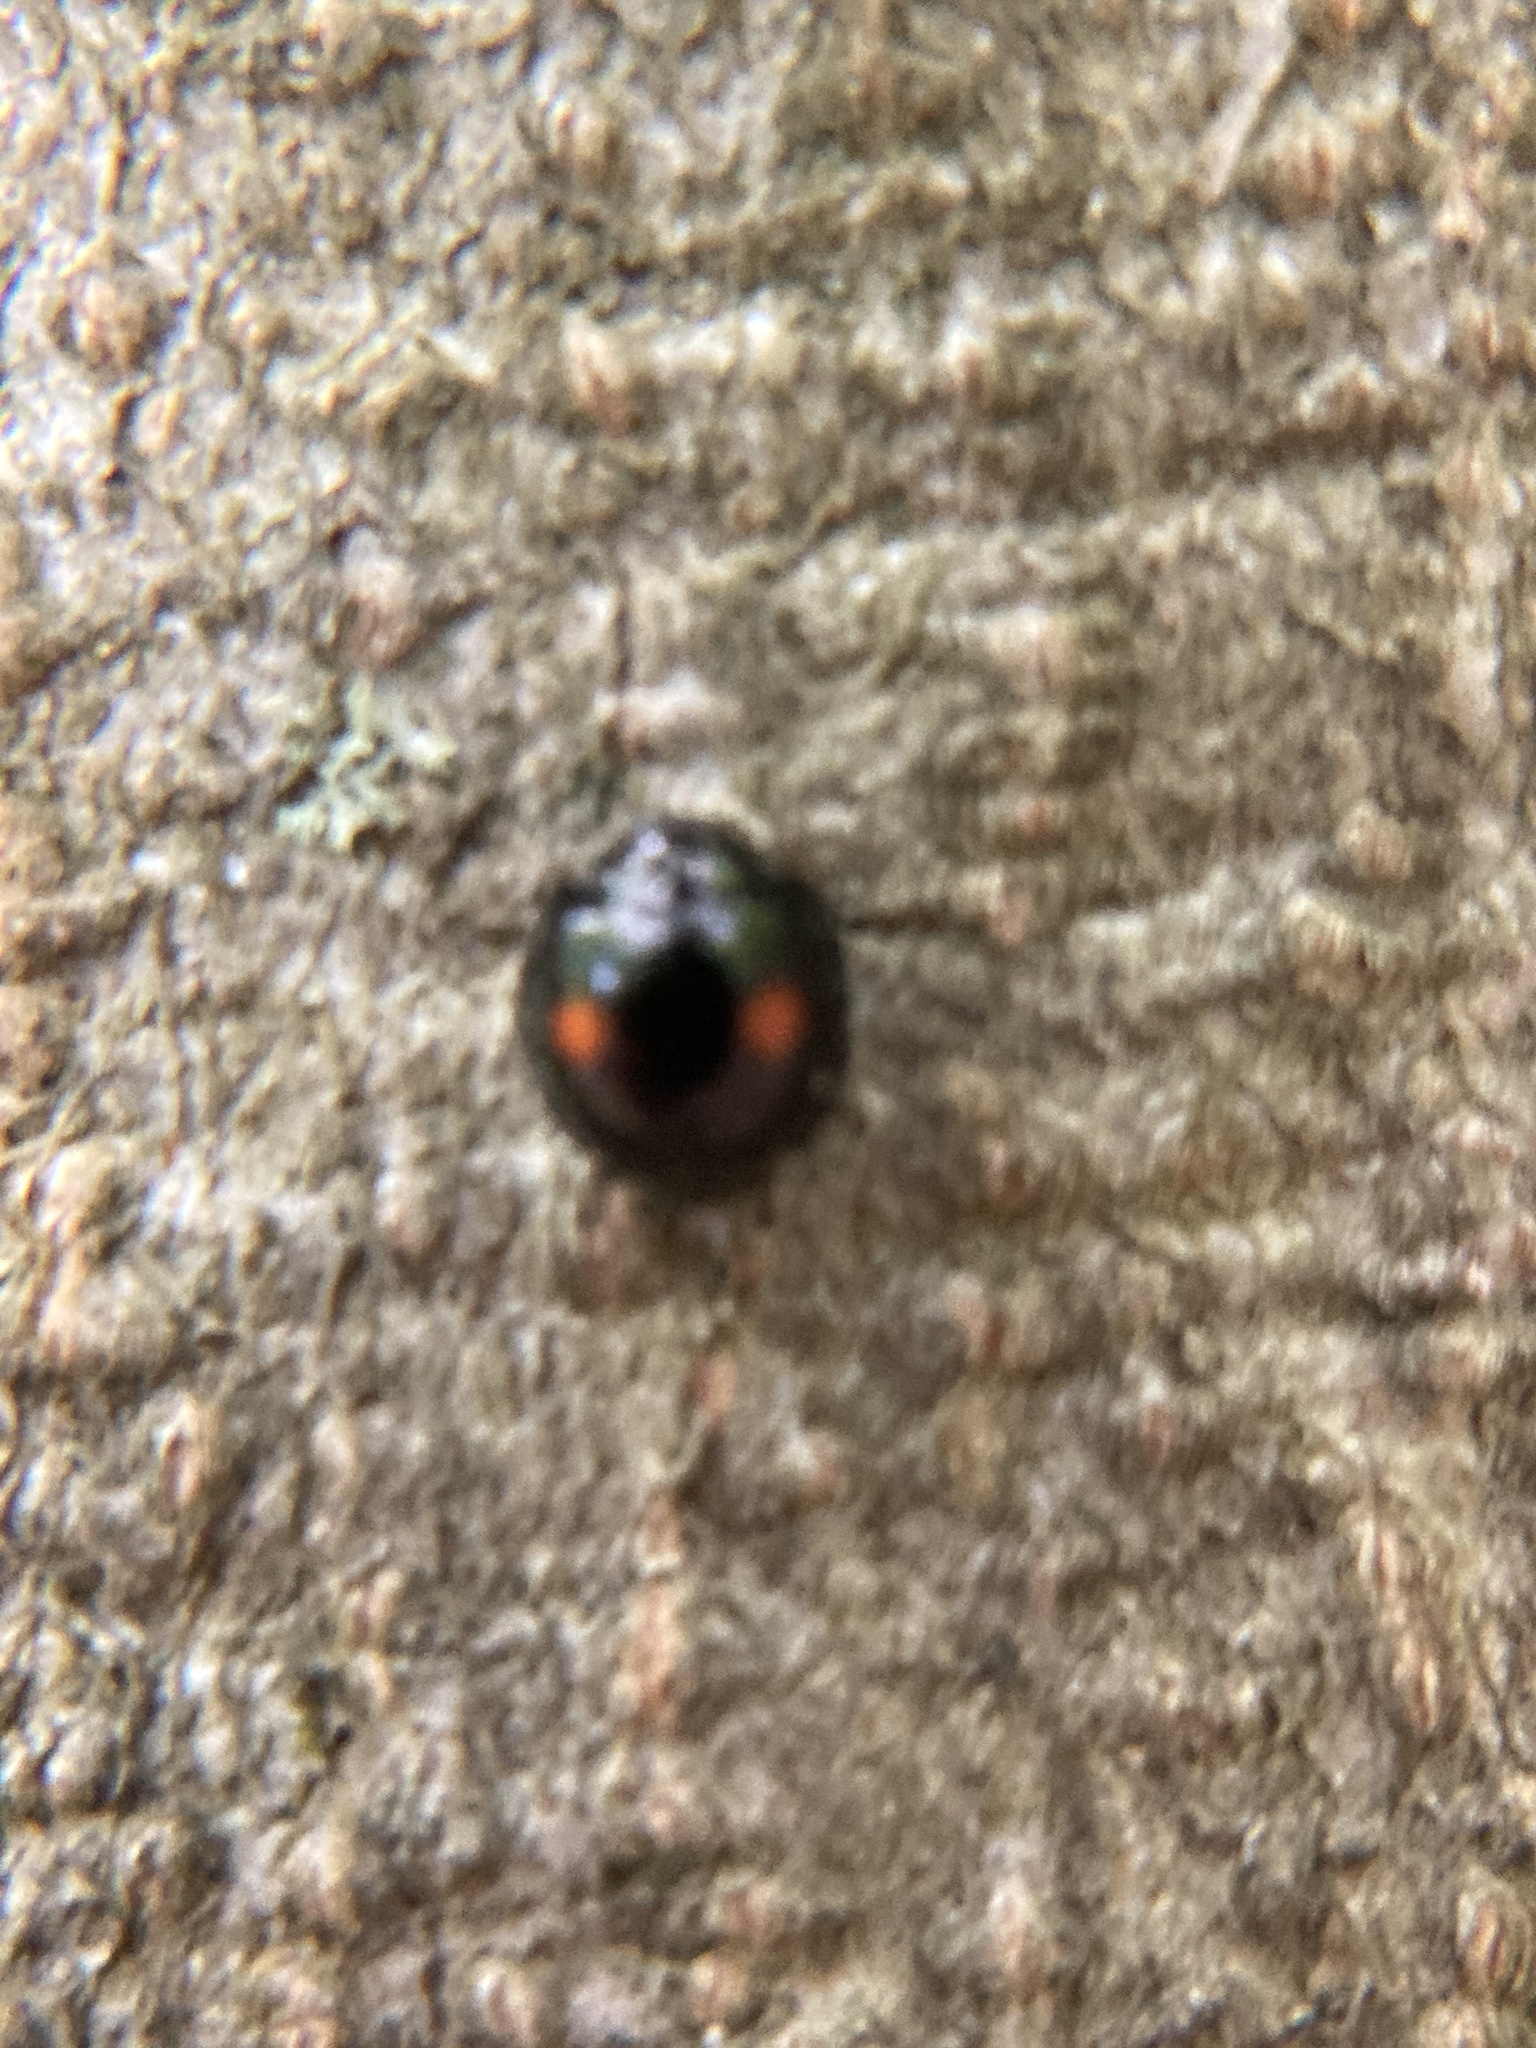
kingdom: Animalia
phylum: Arthropoda
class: Insecta
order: Coleoptera
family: Coccinellidae
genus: Chilocorus
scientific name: Chilocorus stigma
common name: Twicestabbed lady beetle
